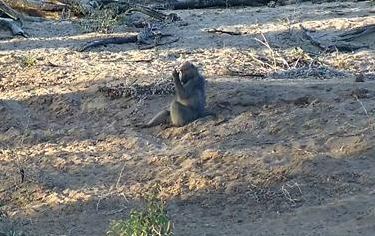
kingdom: Animalia
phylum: Chordata
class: Mammalia
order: Primates
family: Cercopithecidae
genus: Papio
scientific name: Papio ursinus
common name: Chacma baboon
